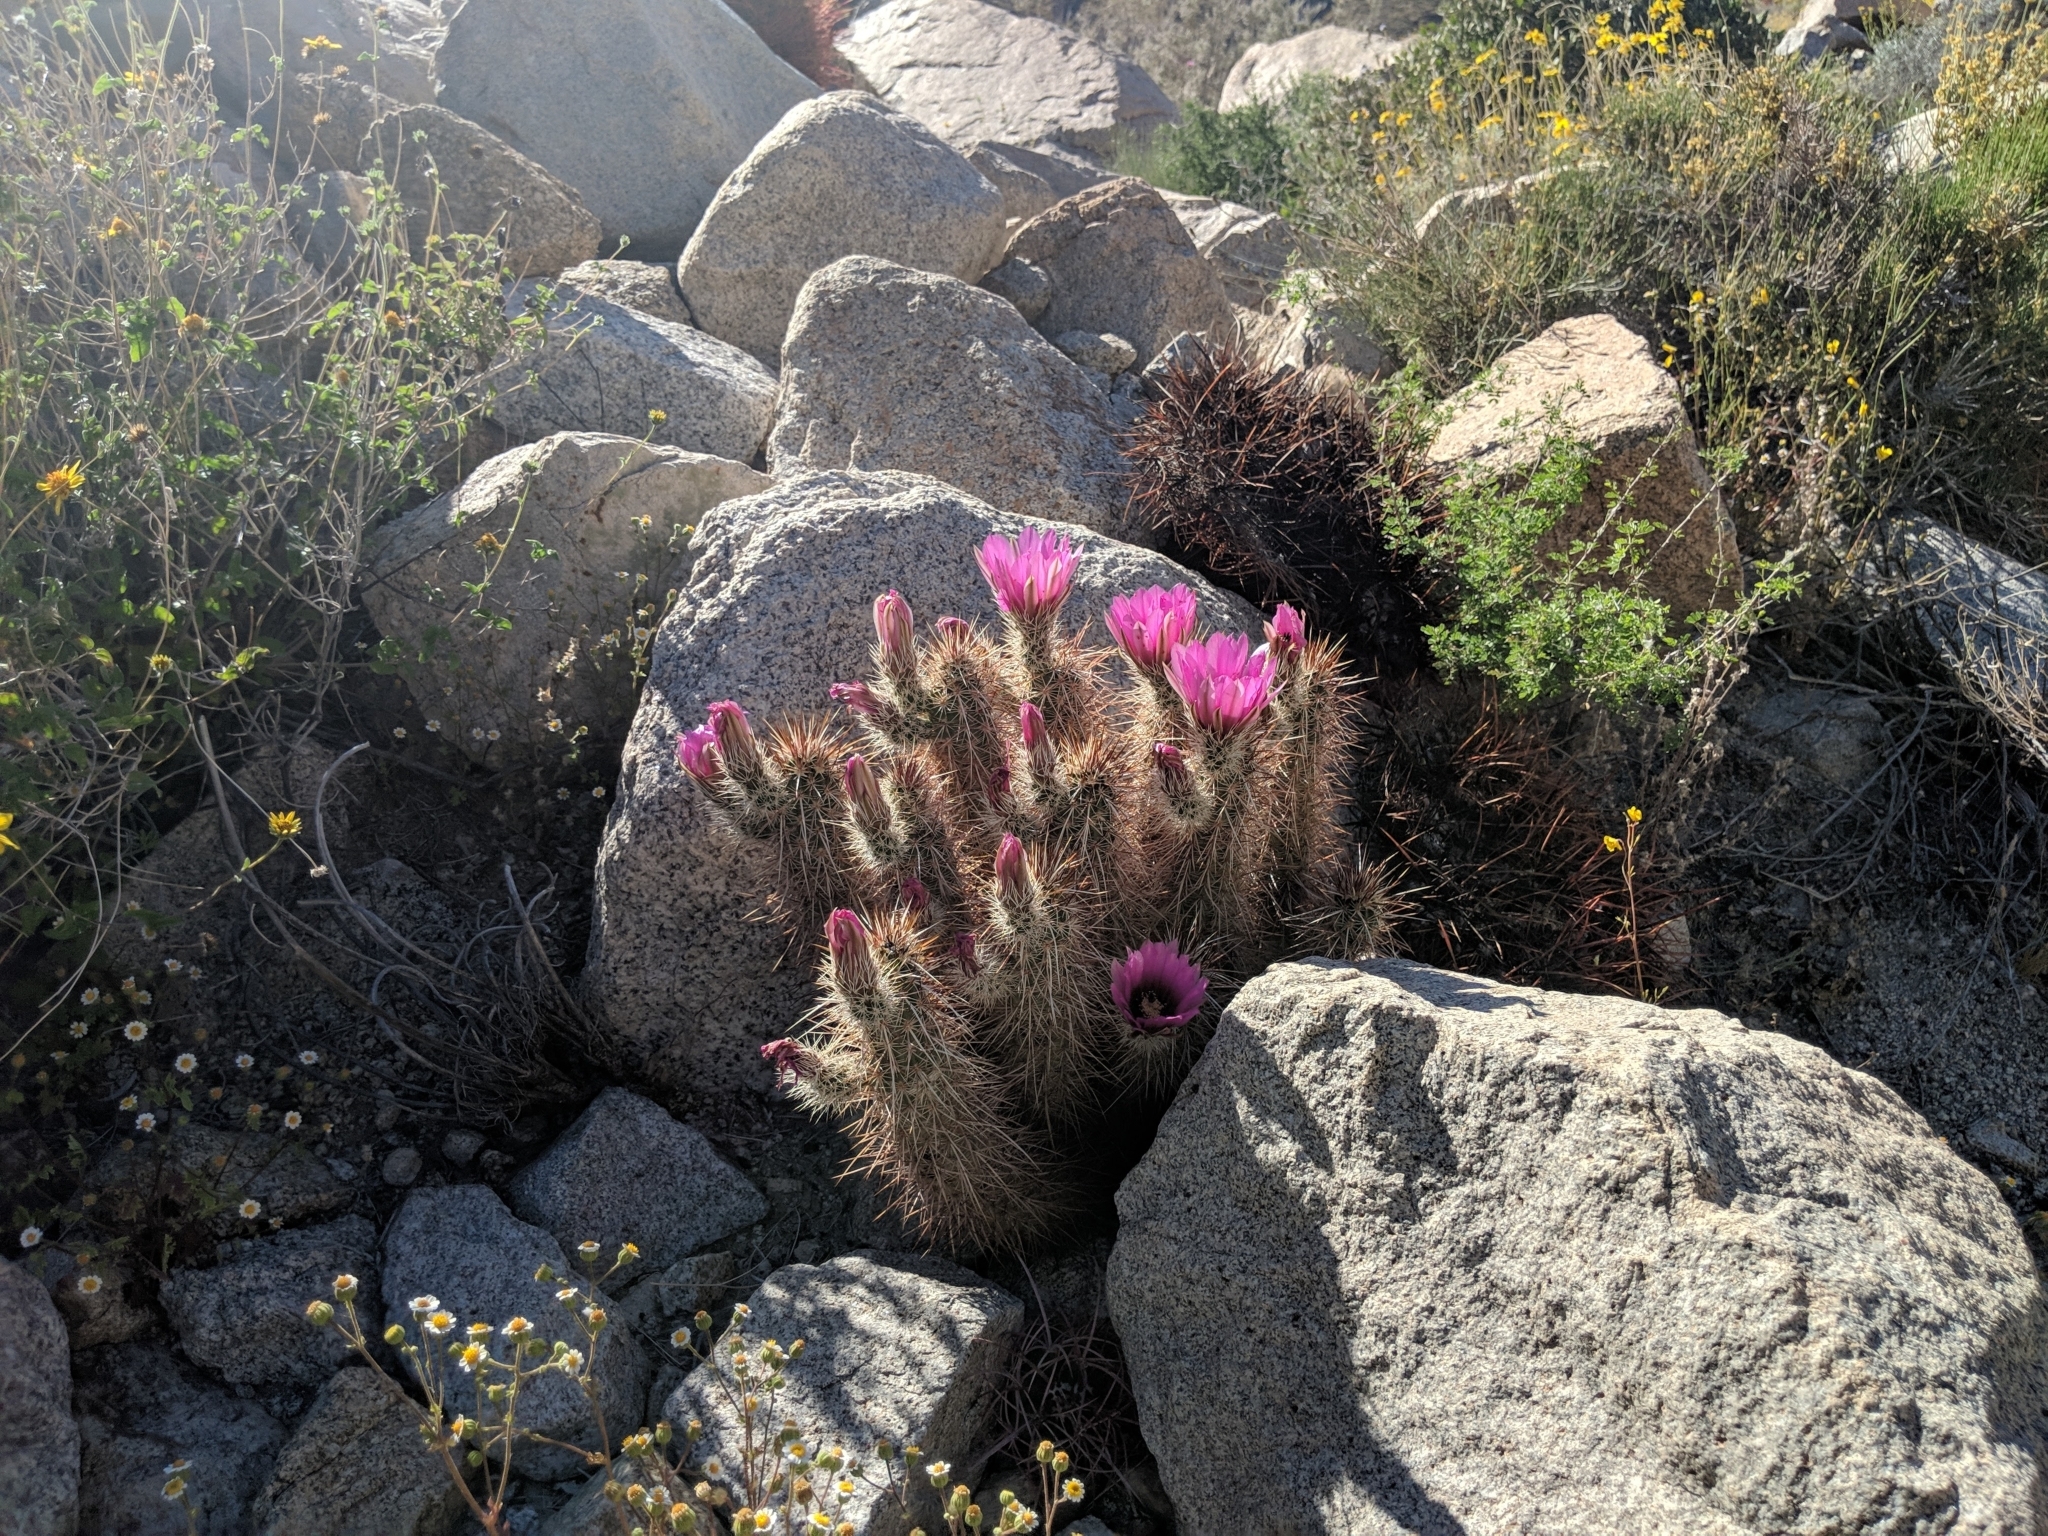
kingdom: Plantae
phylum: Tracheophyta
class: Magnoliopsida
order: Caryophyllales
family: Cactaceae
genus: Echinocereus
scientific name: Echinocereus engelmannii
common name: Engelmann's hedgehog cactus
